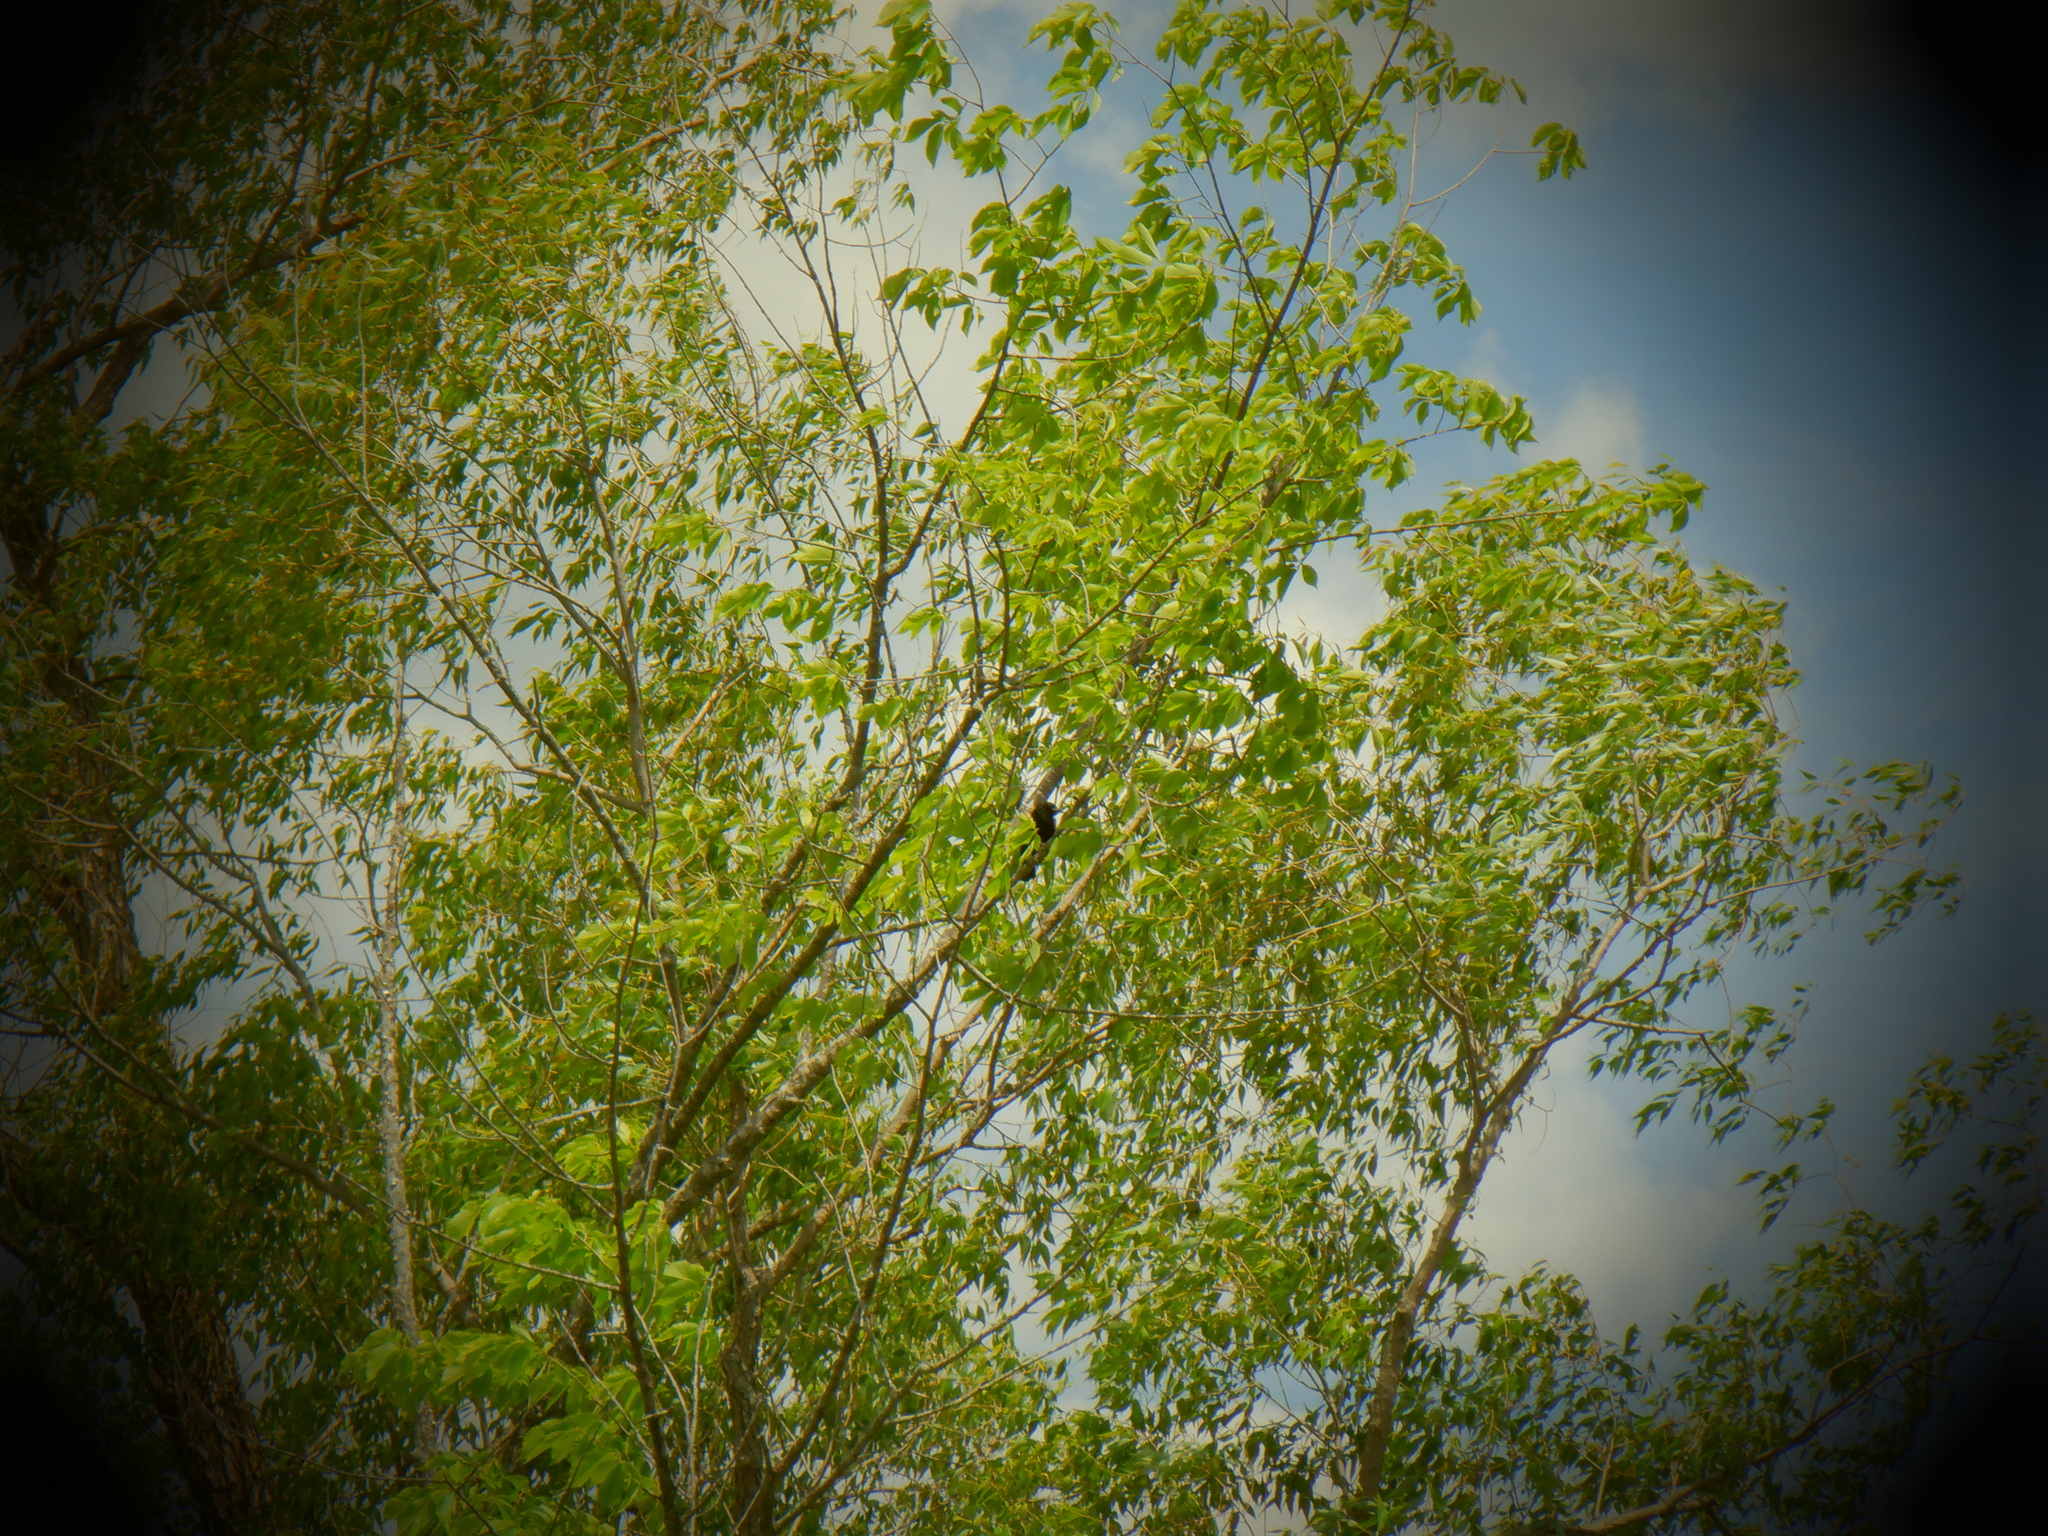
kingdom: Animalia
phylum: Chordata
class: Aves
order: Passeriformes
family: Icteridae
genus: Agelaius
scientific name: Agelaius phoeniceus
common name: Red-winged blackbird
